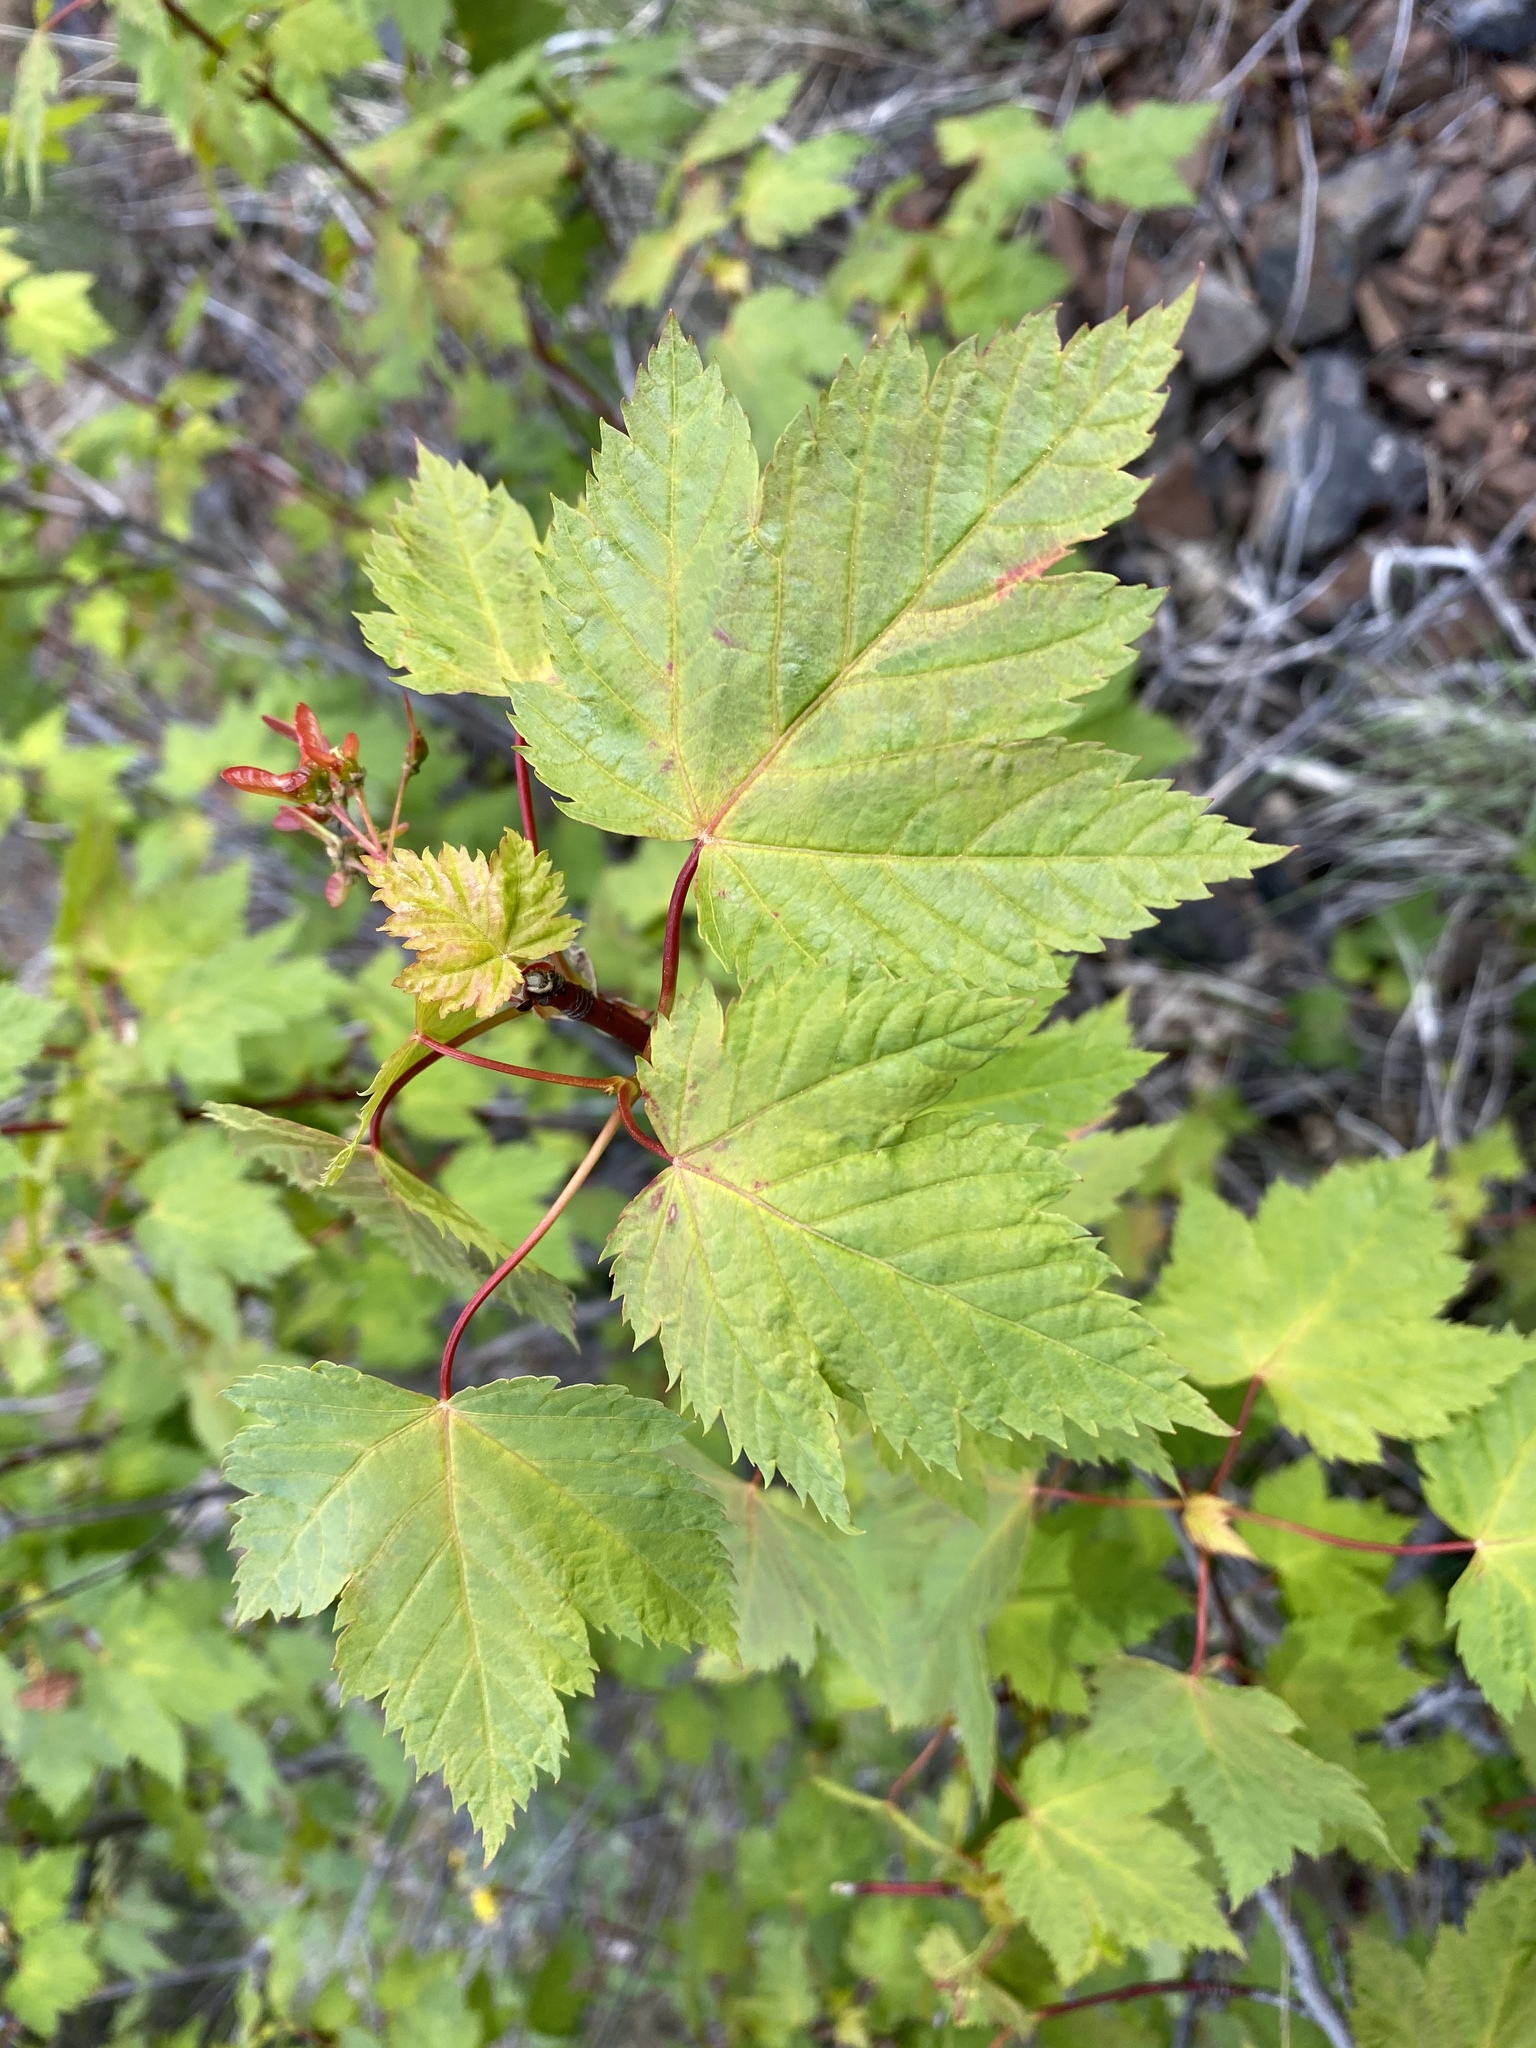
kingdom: Plantae
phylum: Tracheophyta
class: Magnoliopsida
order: Sapindales
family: Sapindaceae
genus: Acer
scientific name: Acer glabrum
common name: Rocky mountain maple
